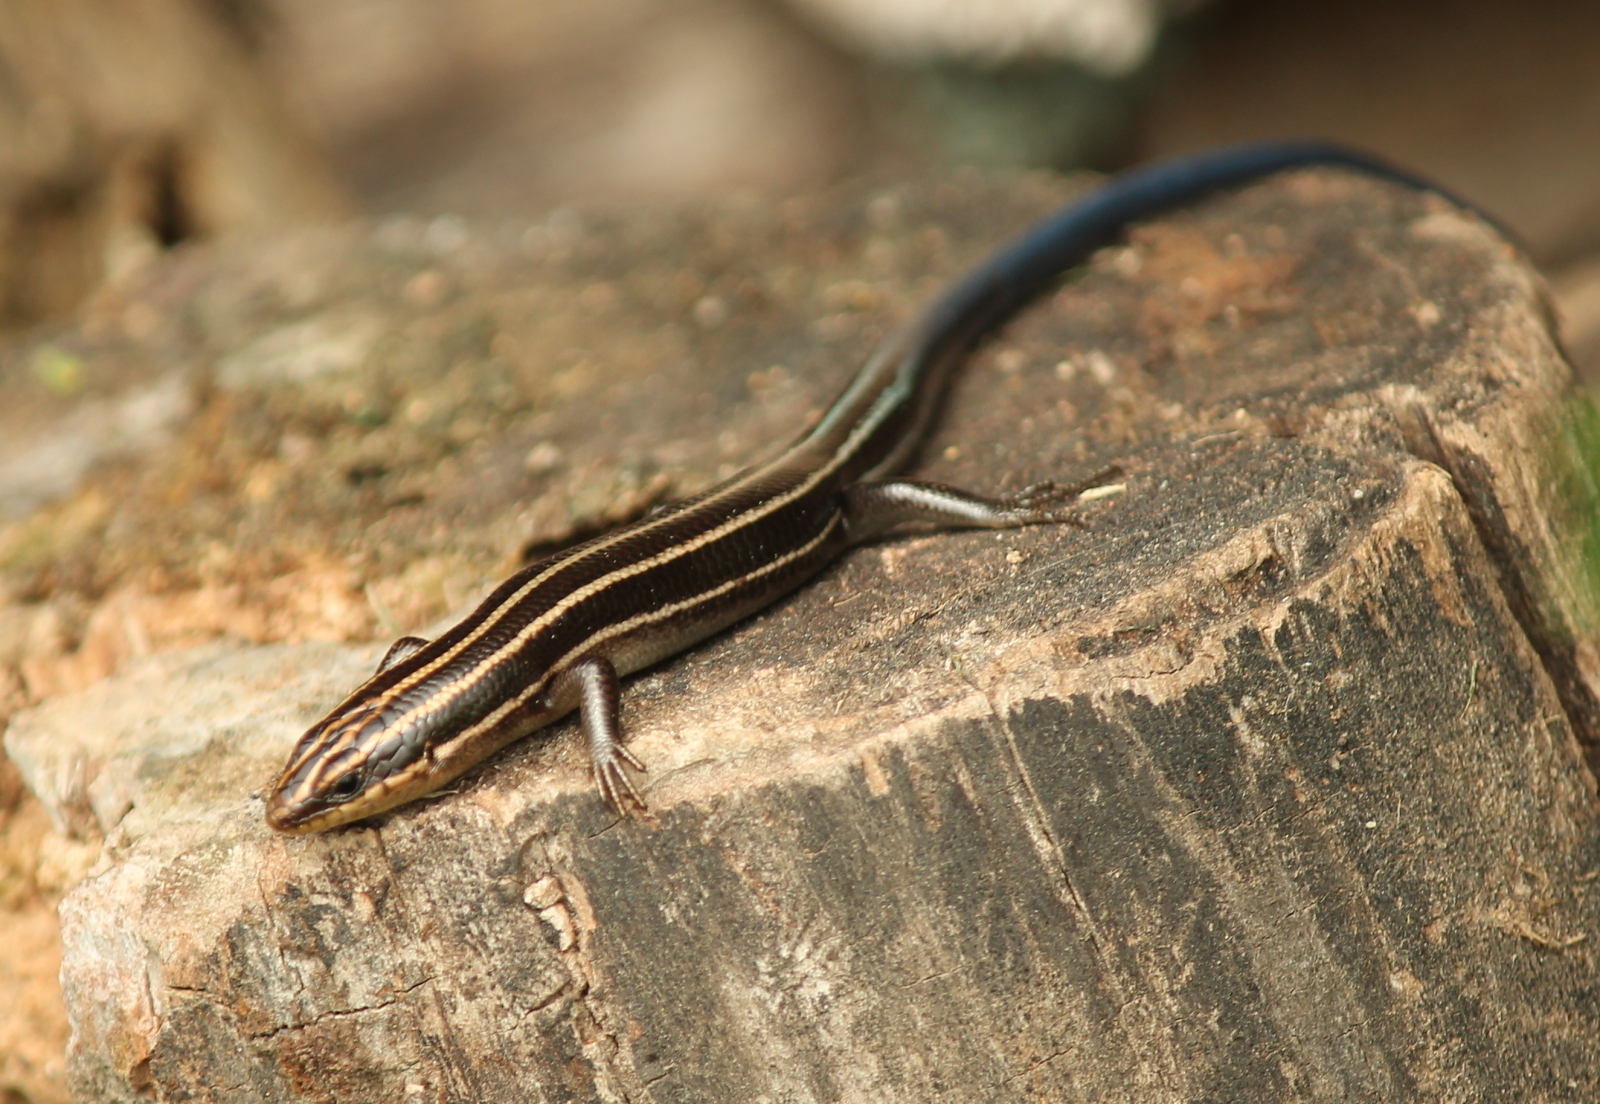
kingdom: Animalia
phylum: Chordata
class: Squamata
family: Scincidae
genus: Plestiodon
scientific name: Plestiodon fasciatus
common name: Five-lined skink
